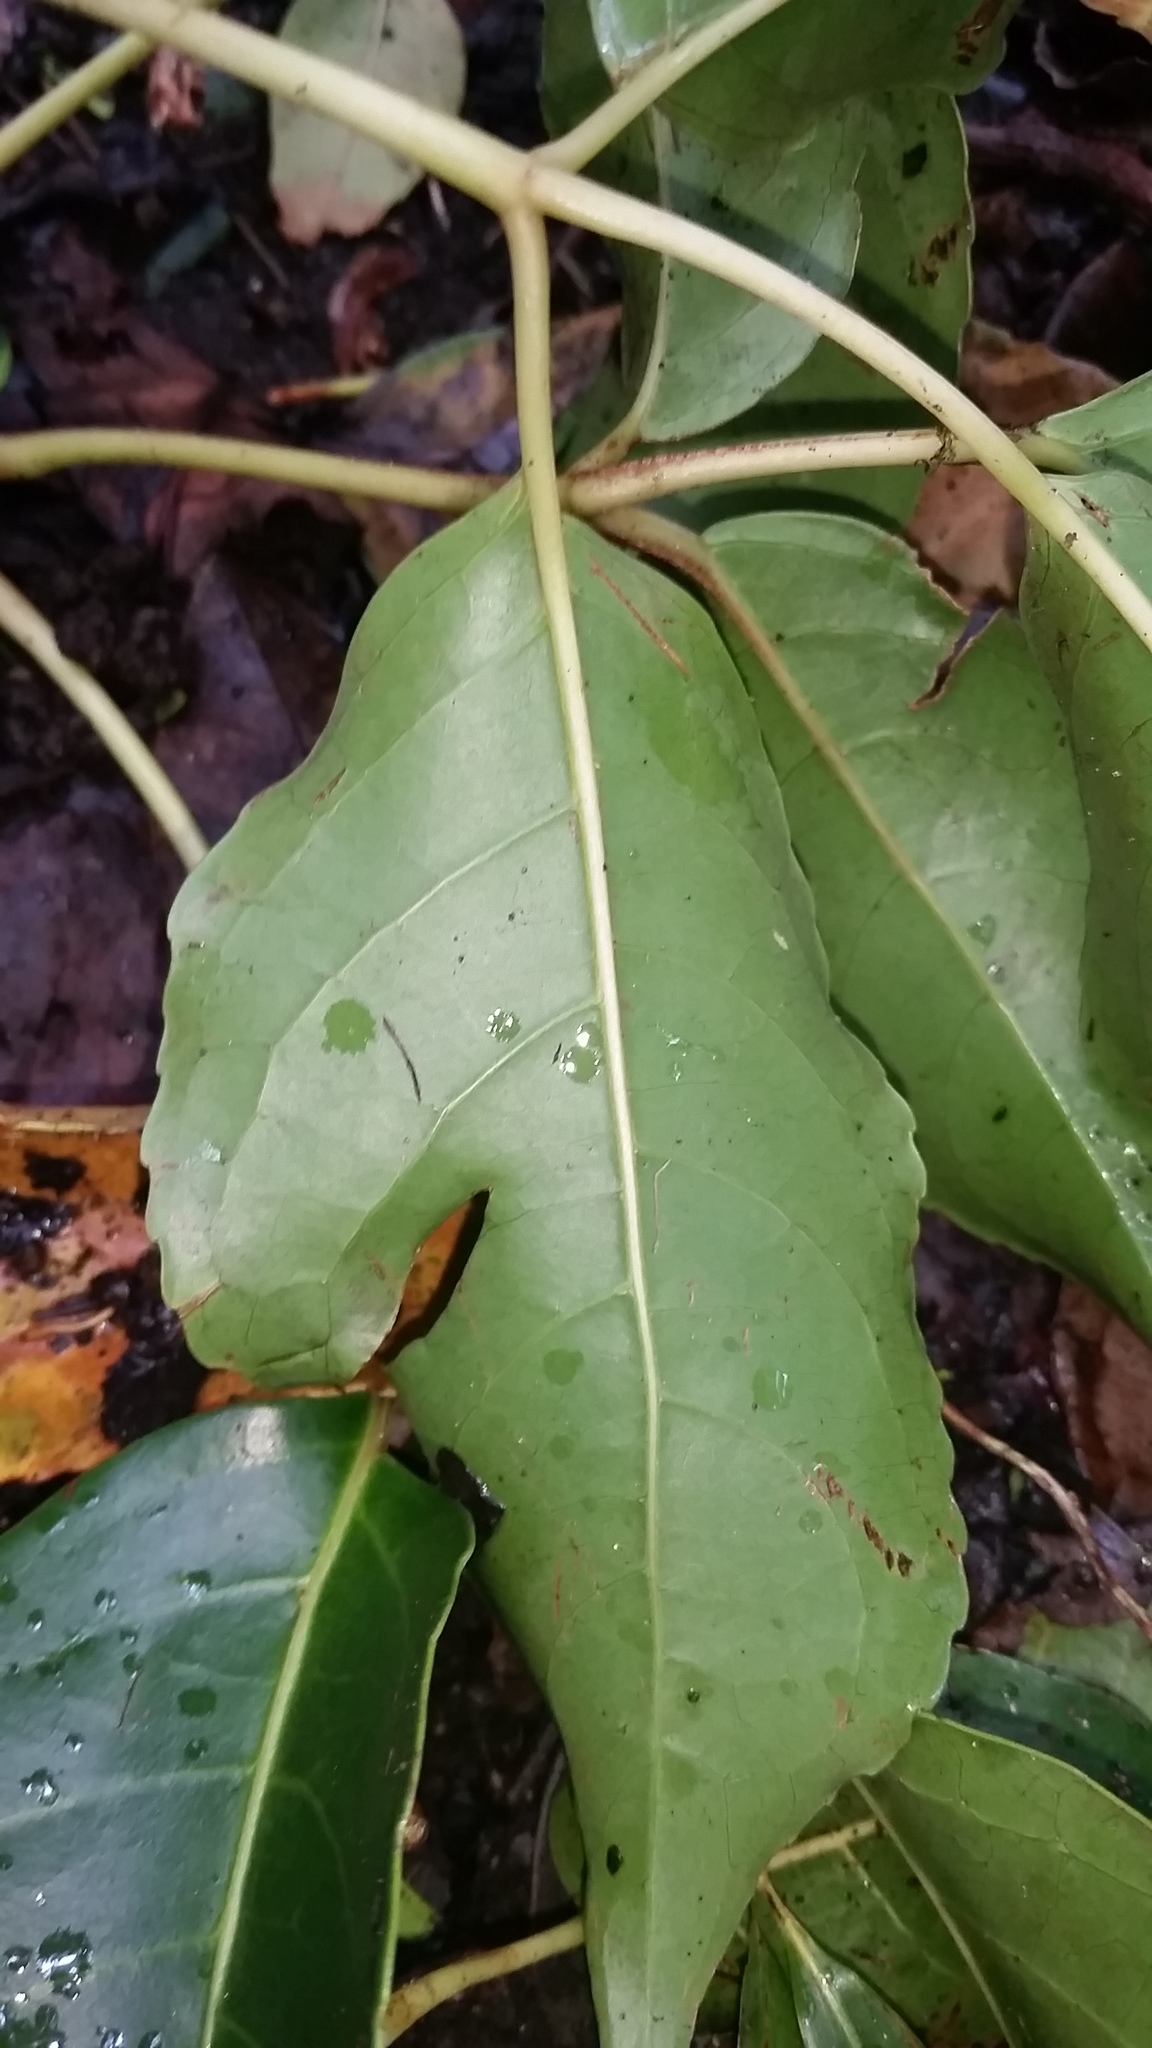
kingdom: Plantae
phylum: Tracheophyta
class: Magnoliopsida
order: Malpighiales
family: Phyllanthaceae
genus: Bischofia
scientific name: Bischofia javanica
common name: Javanese bishopwood
